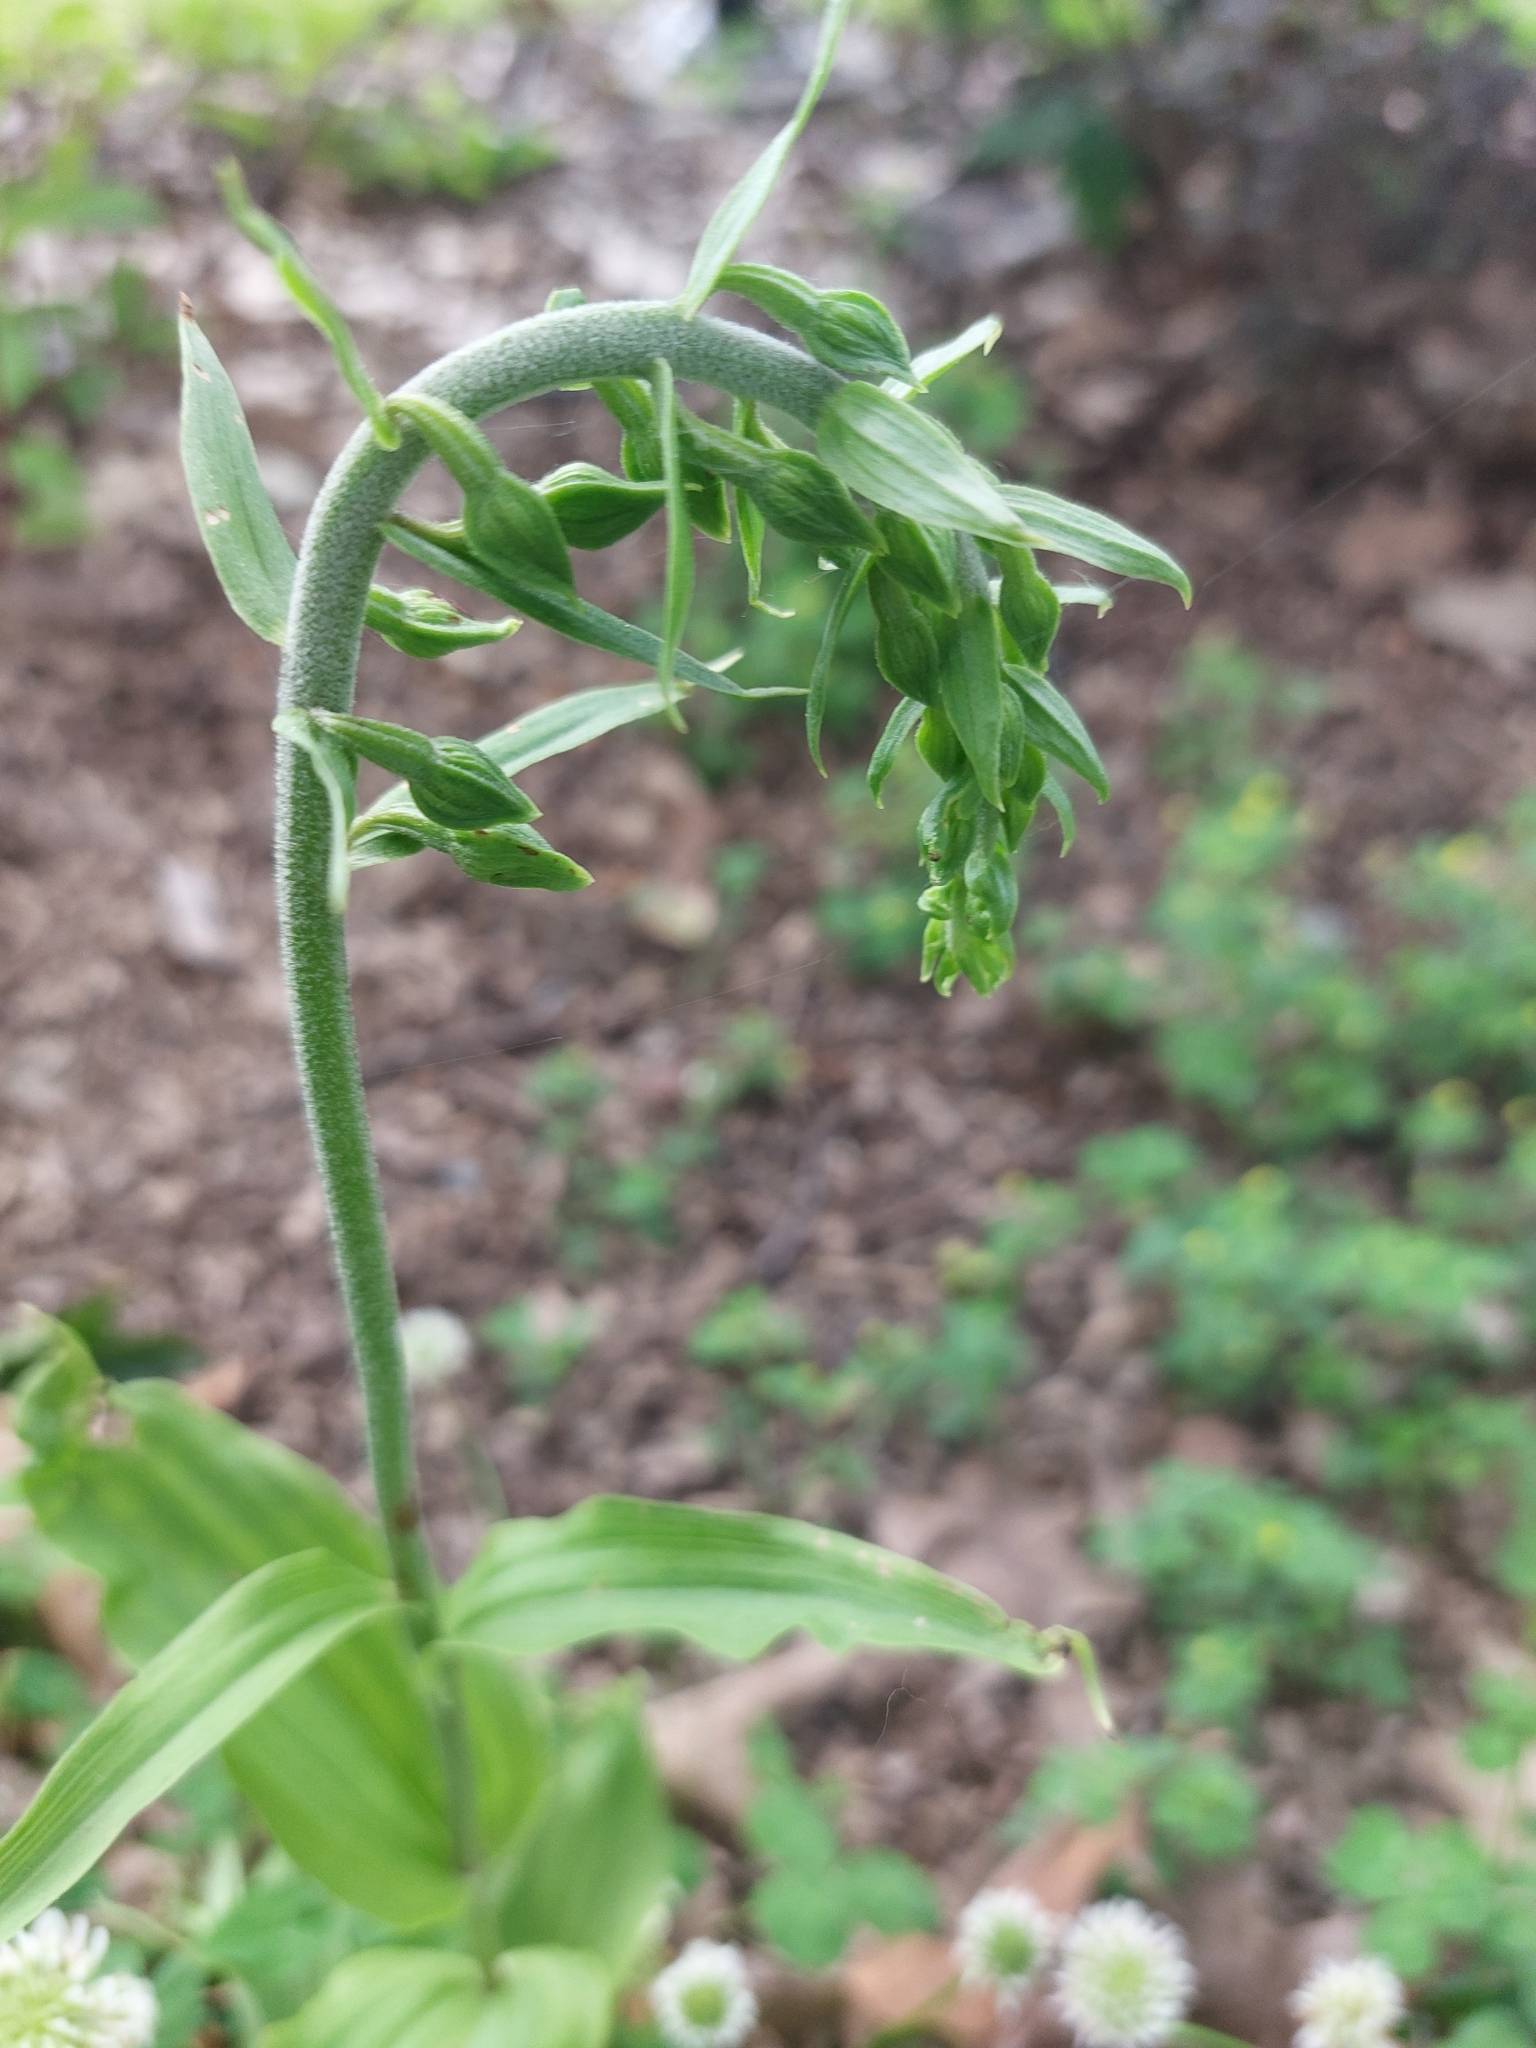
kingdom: Plantae
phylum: Tracheophyta
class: Liliopsida
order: Asparagales
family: Orchidaceae
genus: Epipactis
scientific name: Epipactis helleborine
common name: Broad-leaved helleborine
